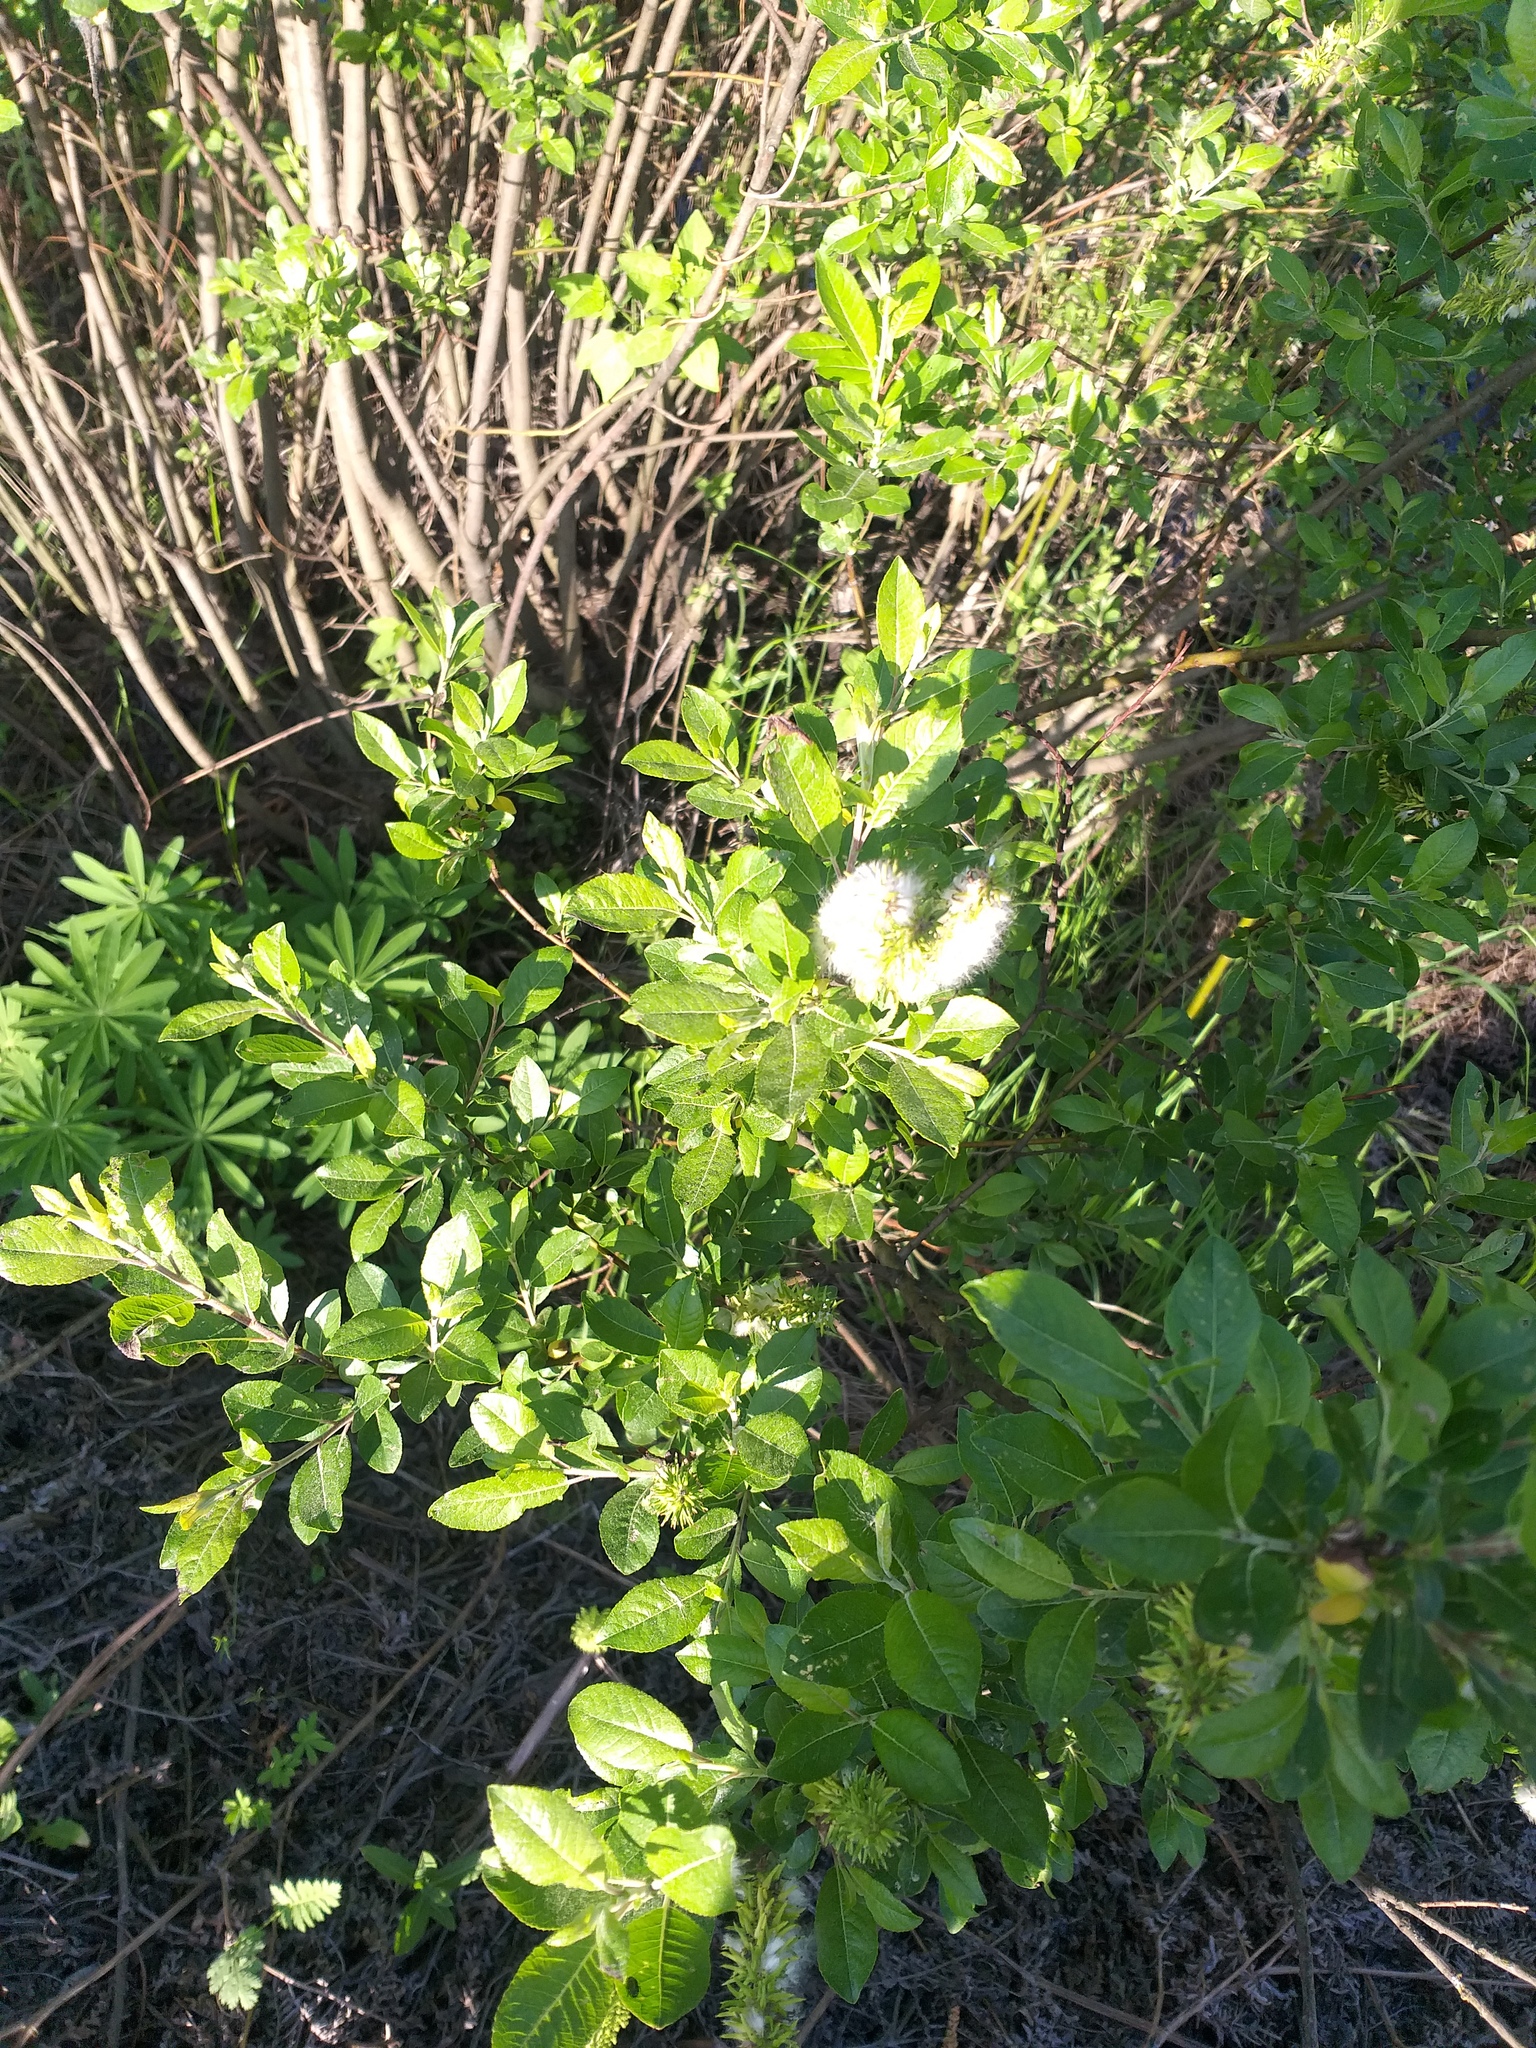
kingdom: Plantae
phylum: Tracheophyta
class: Magnoliopsida
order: Malpighiales
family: Salicaceae
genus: Salix
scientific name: Salix myrsinifolia
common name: Dark-leaved willow
